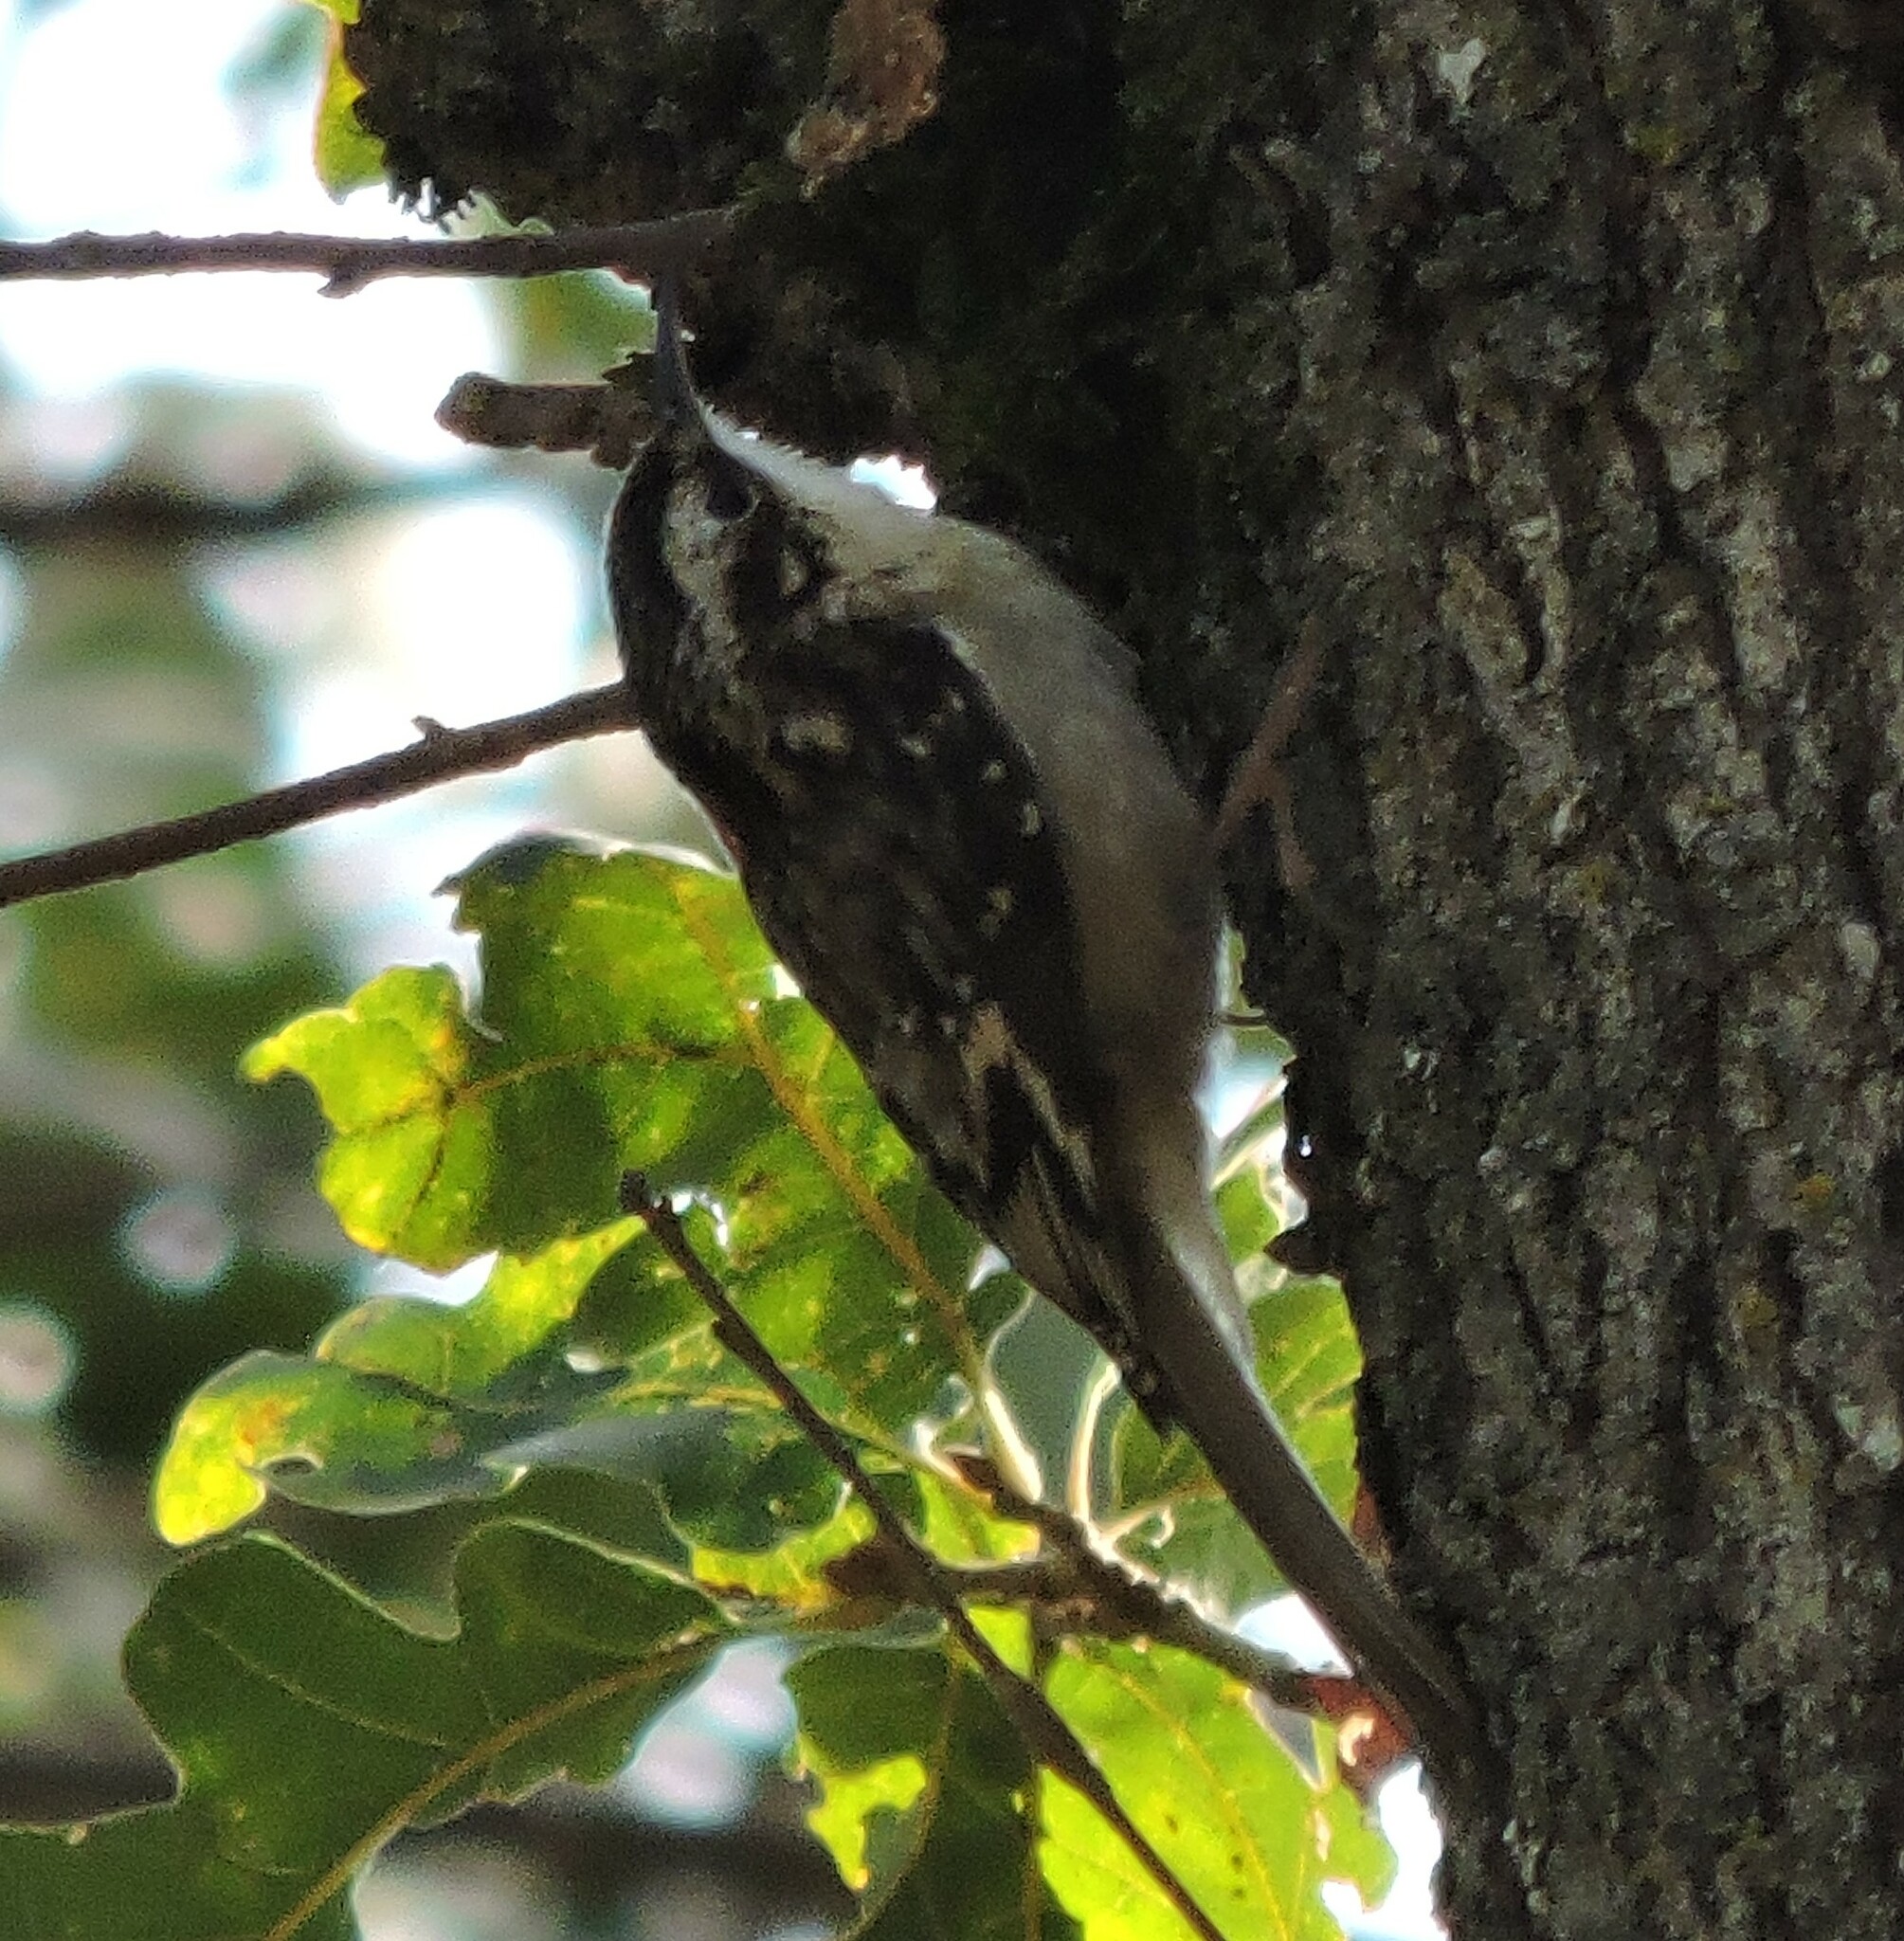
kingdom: Animalia
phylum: Chordata
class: Aves
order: Passeriformes
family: Certhiidae
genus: Certhia
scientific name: Certhia americana
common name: Brown creeper
